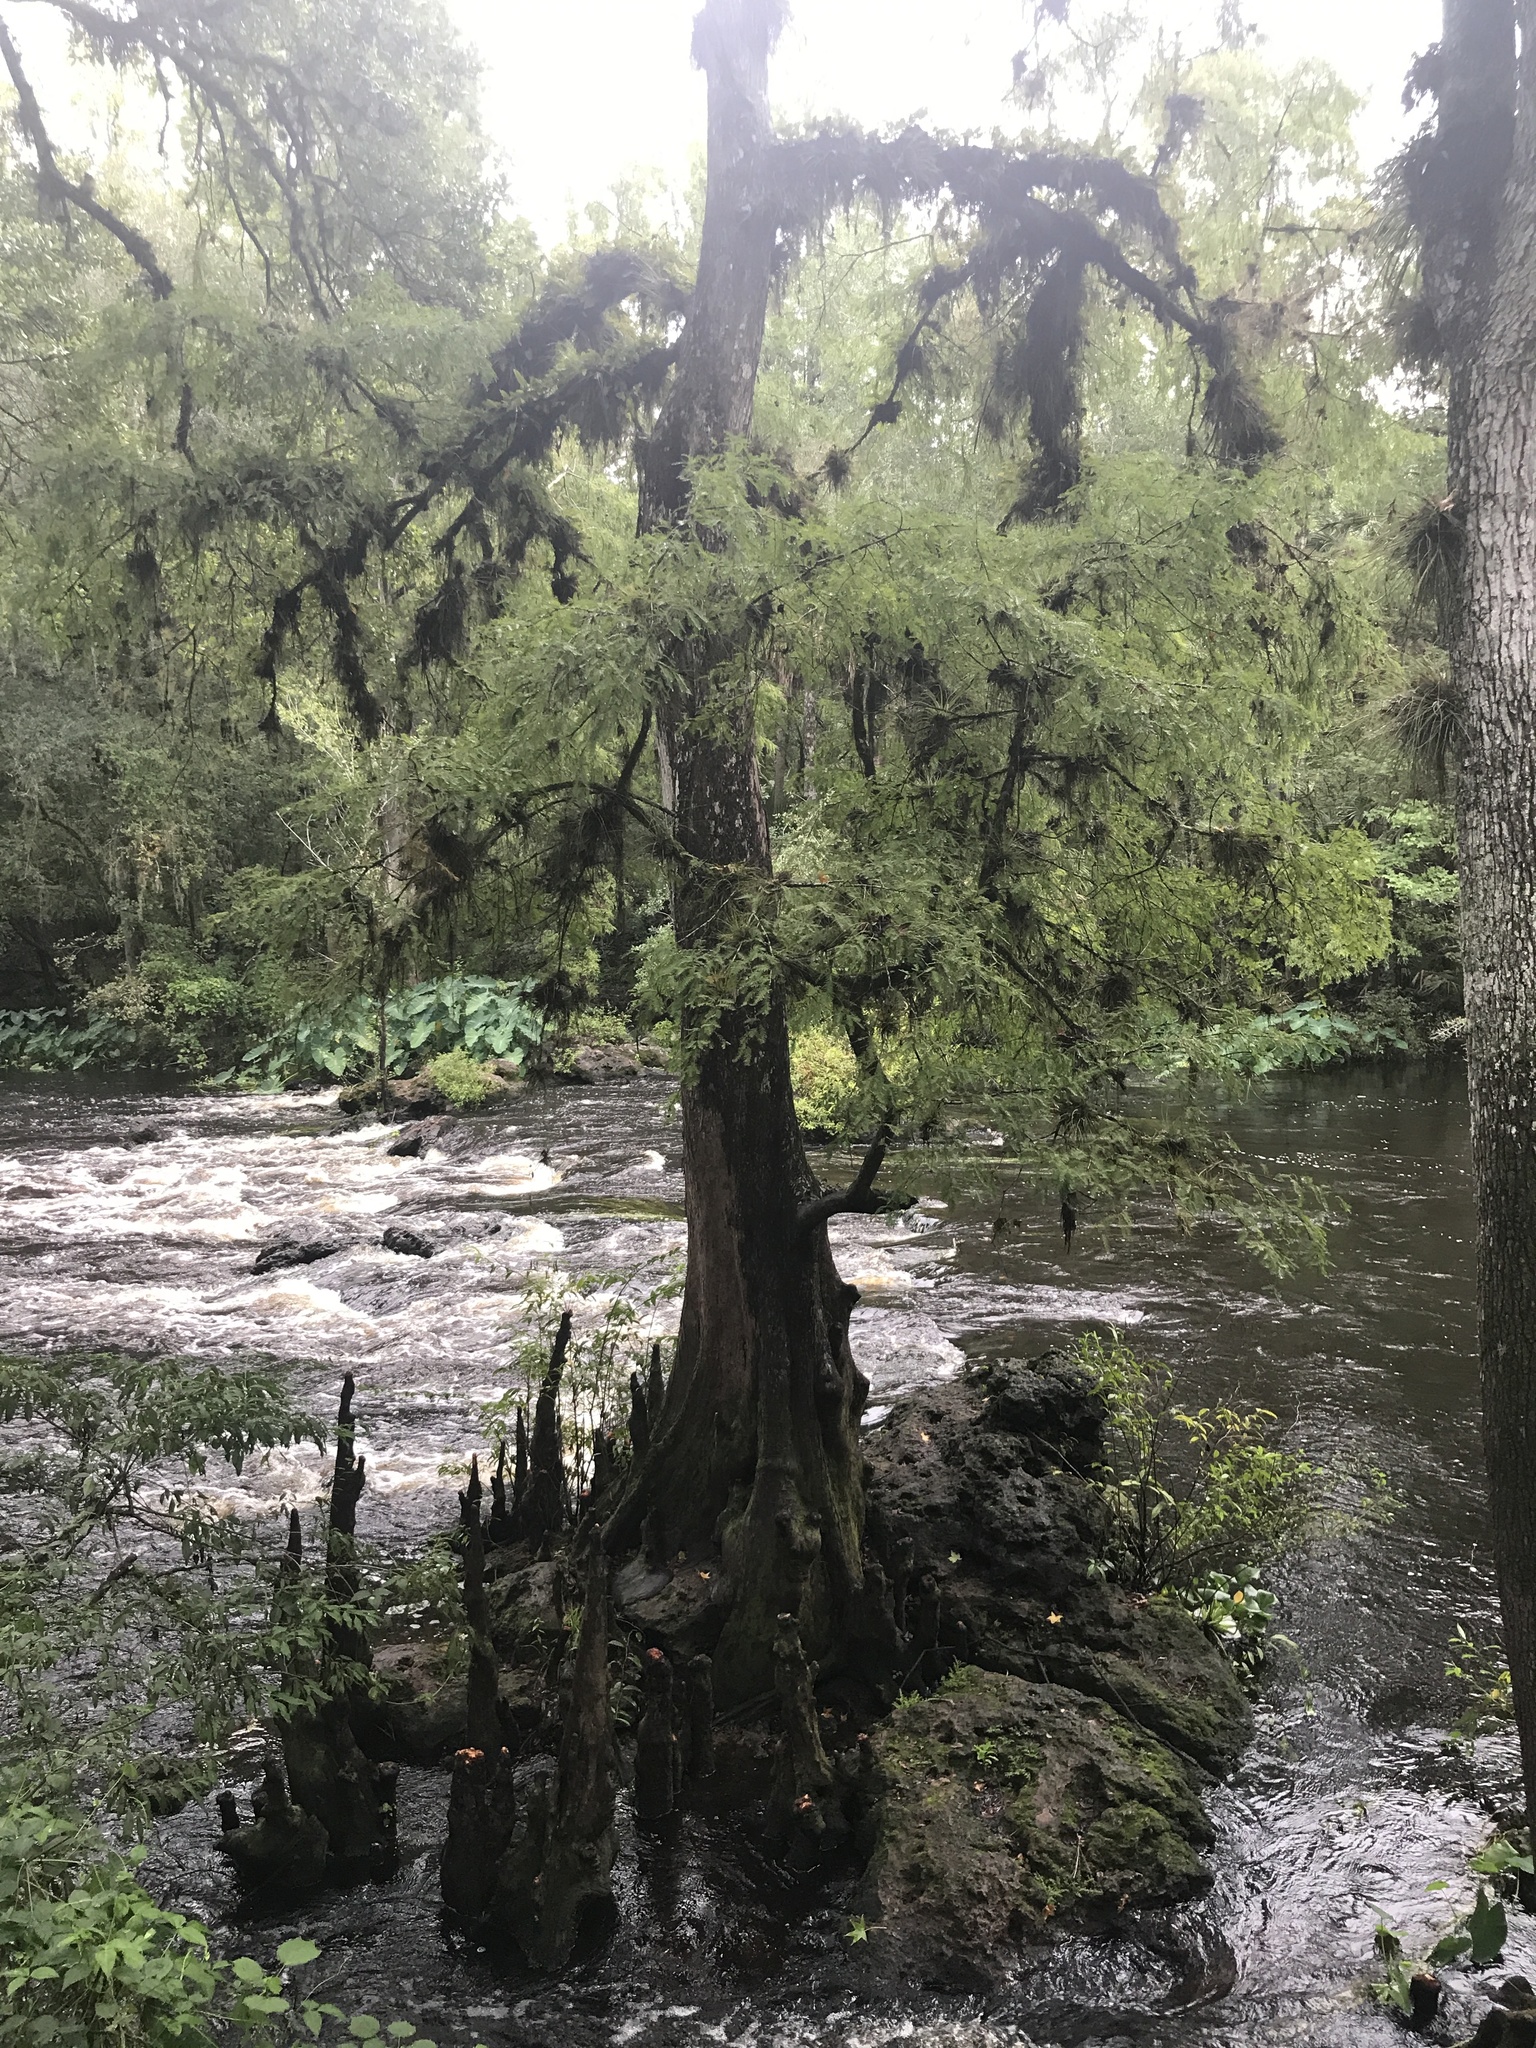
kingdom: Plantae
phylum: Tracheophyta
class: Pinopsida
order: Pinales
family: Cupressaceae
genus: Taxodium
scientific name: Taxodium distichum
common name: Bald cypress
